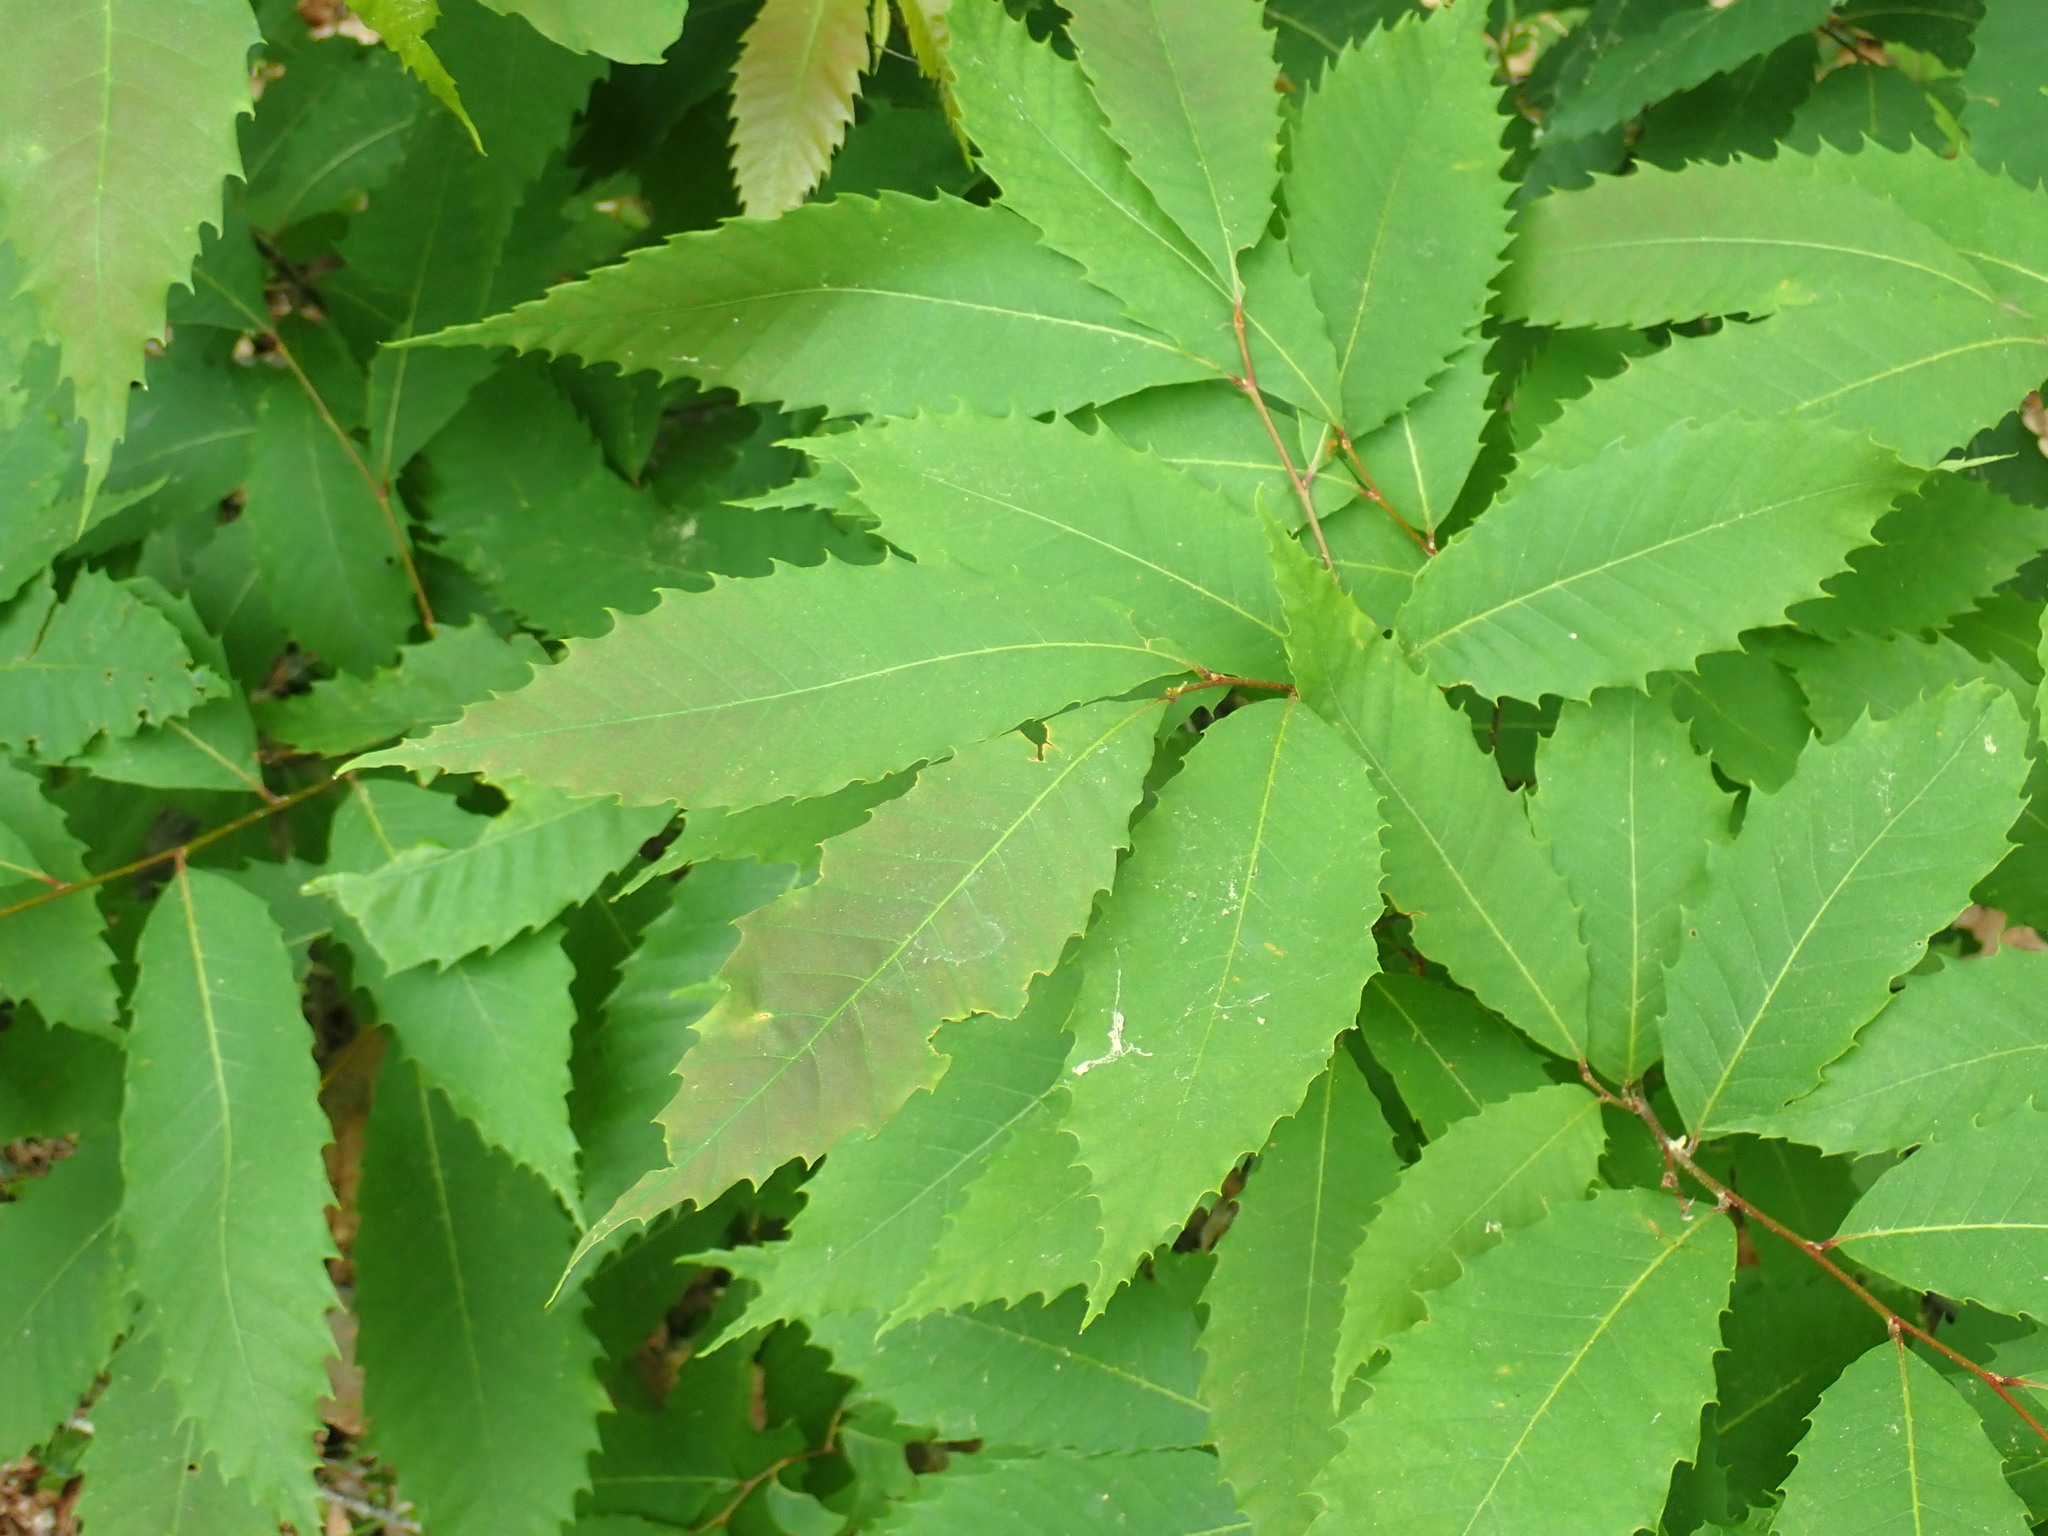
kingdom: Plantae
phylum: Tracheophyta
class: Magnoliopsida
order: Fagales
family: Fagaceae
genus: Castanea
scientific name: Castanea dentata
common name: American chestnut
